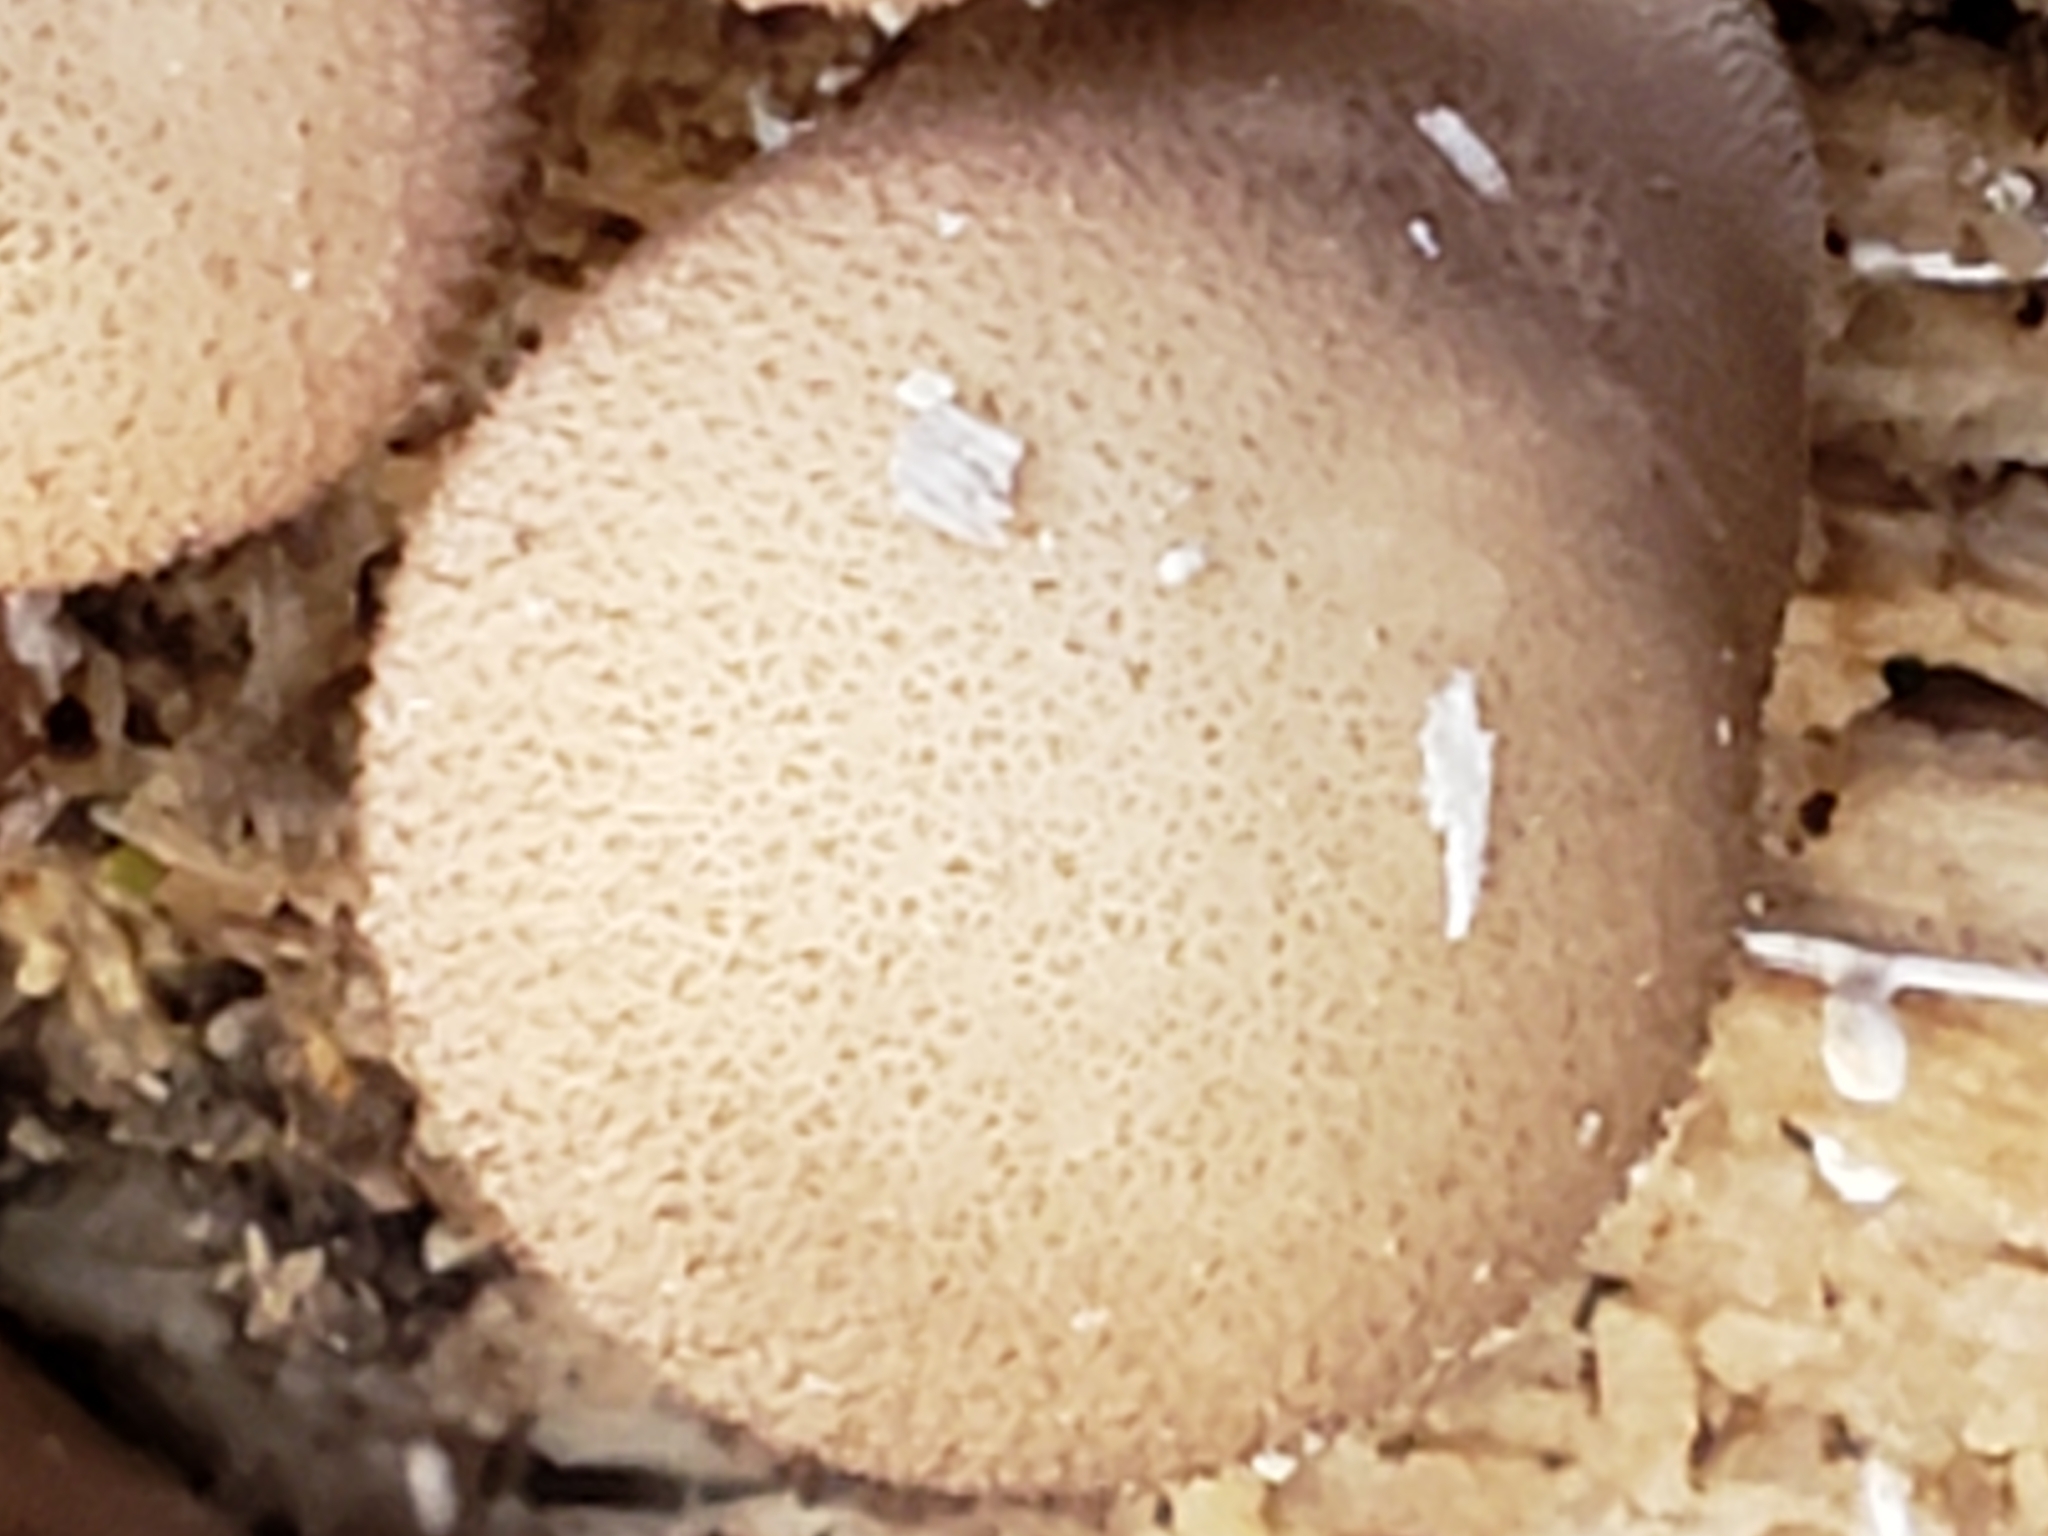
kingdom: Fungi
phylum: Basidiomycota
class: Agaricomycetes
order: Agaricales
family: Lycoperdaceae
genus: Apioperdon
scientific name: Apioperdon pyriforme
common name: Pear-shaped puffball
